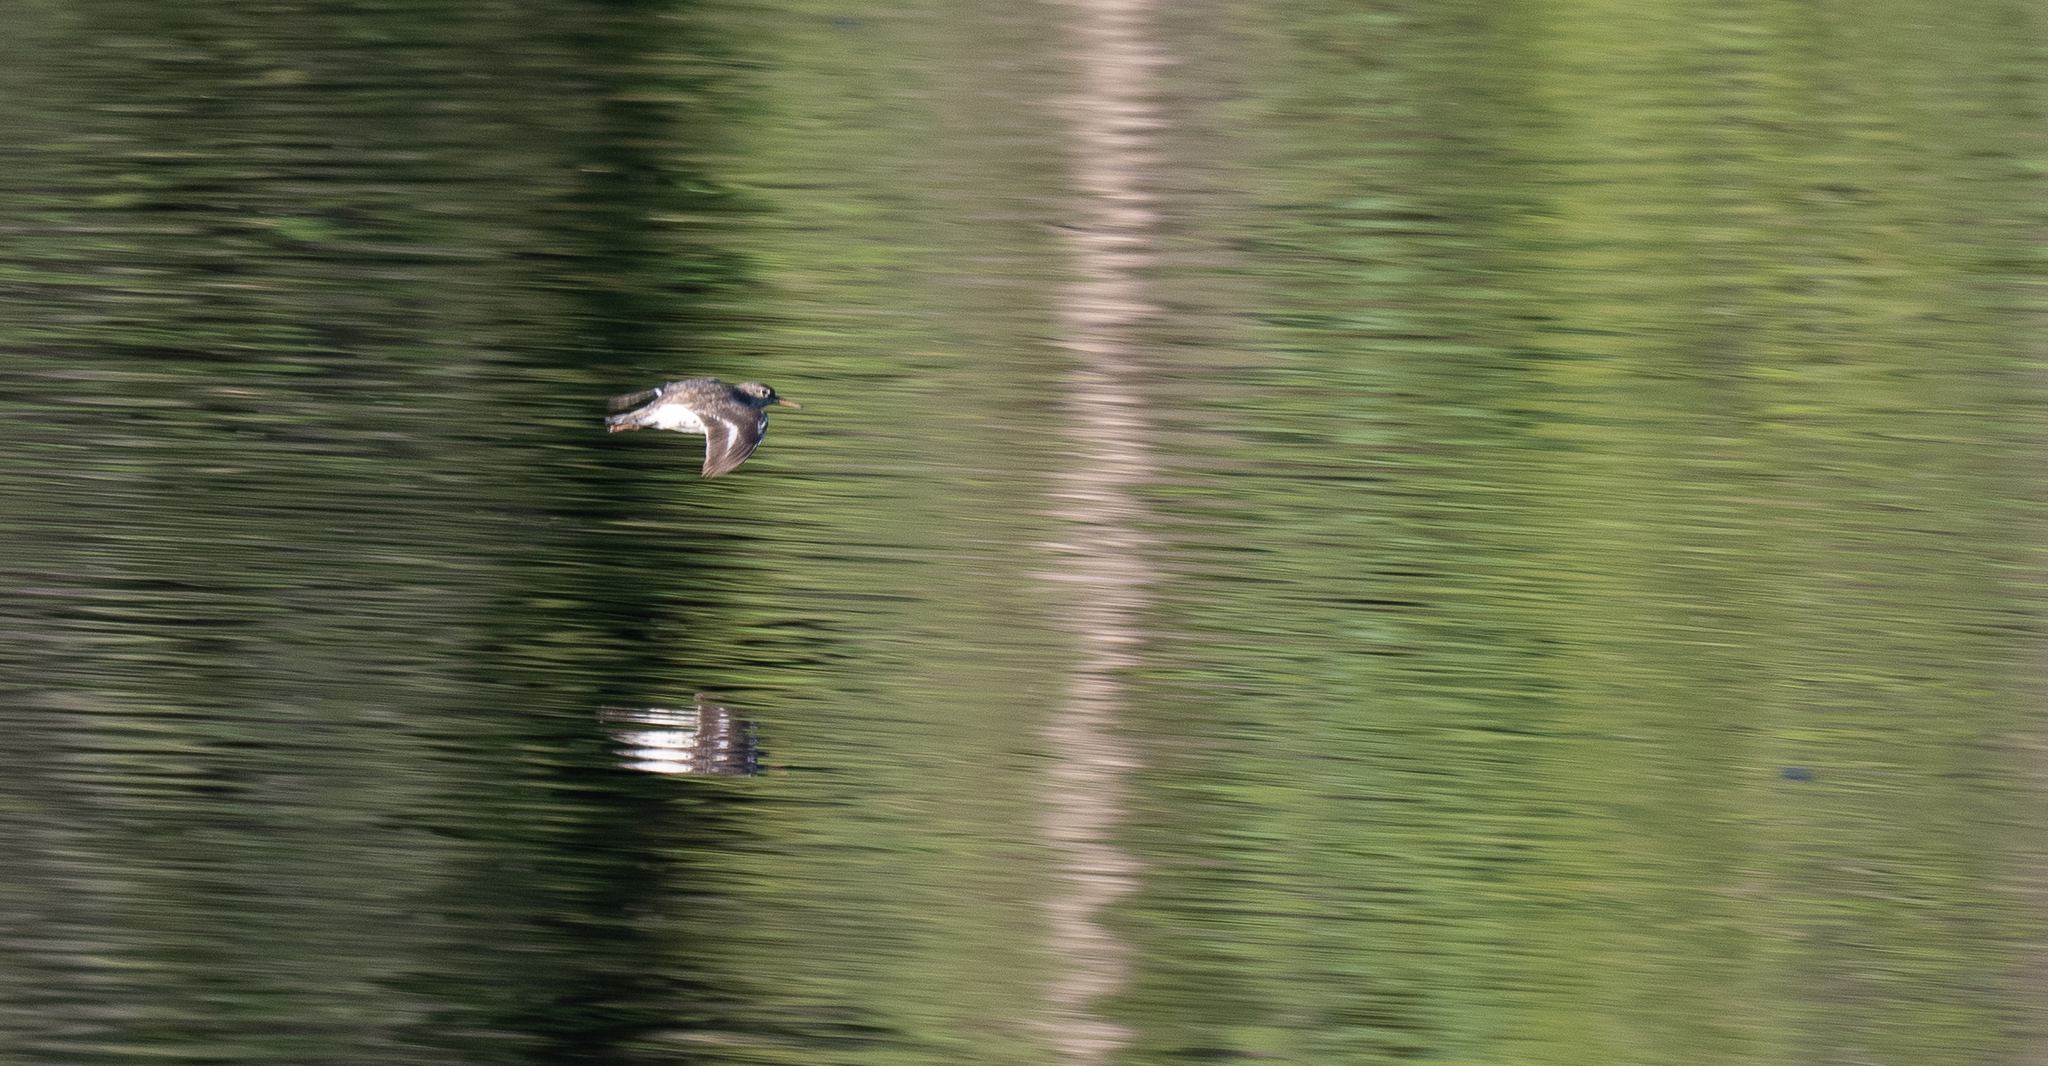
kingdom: Animalia
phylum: Chordata
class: Aves
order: Charadriiformes
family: Scolopacidae
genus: Actitis
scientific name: Actitis macularius
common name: Spotted sandpiper
